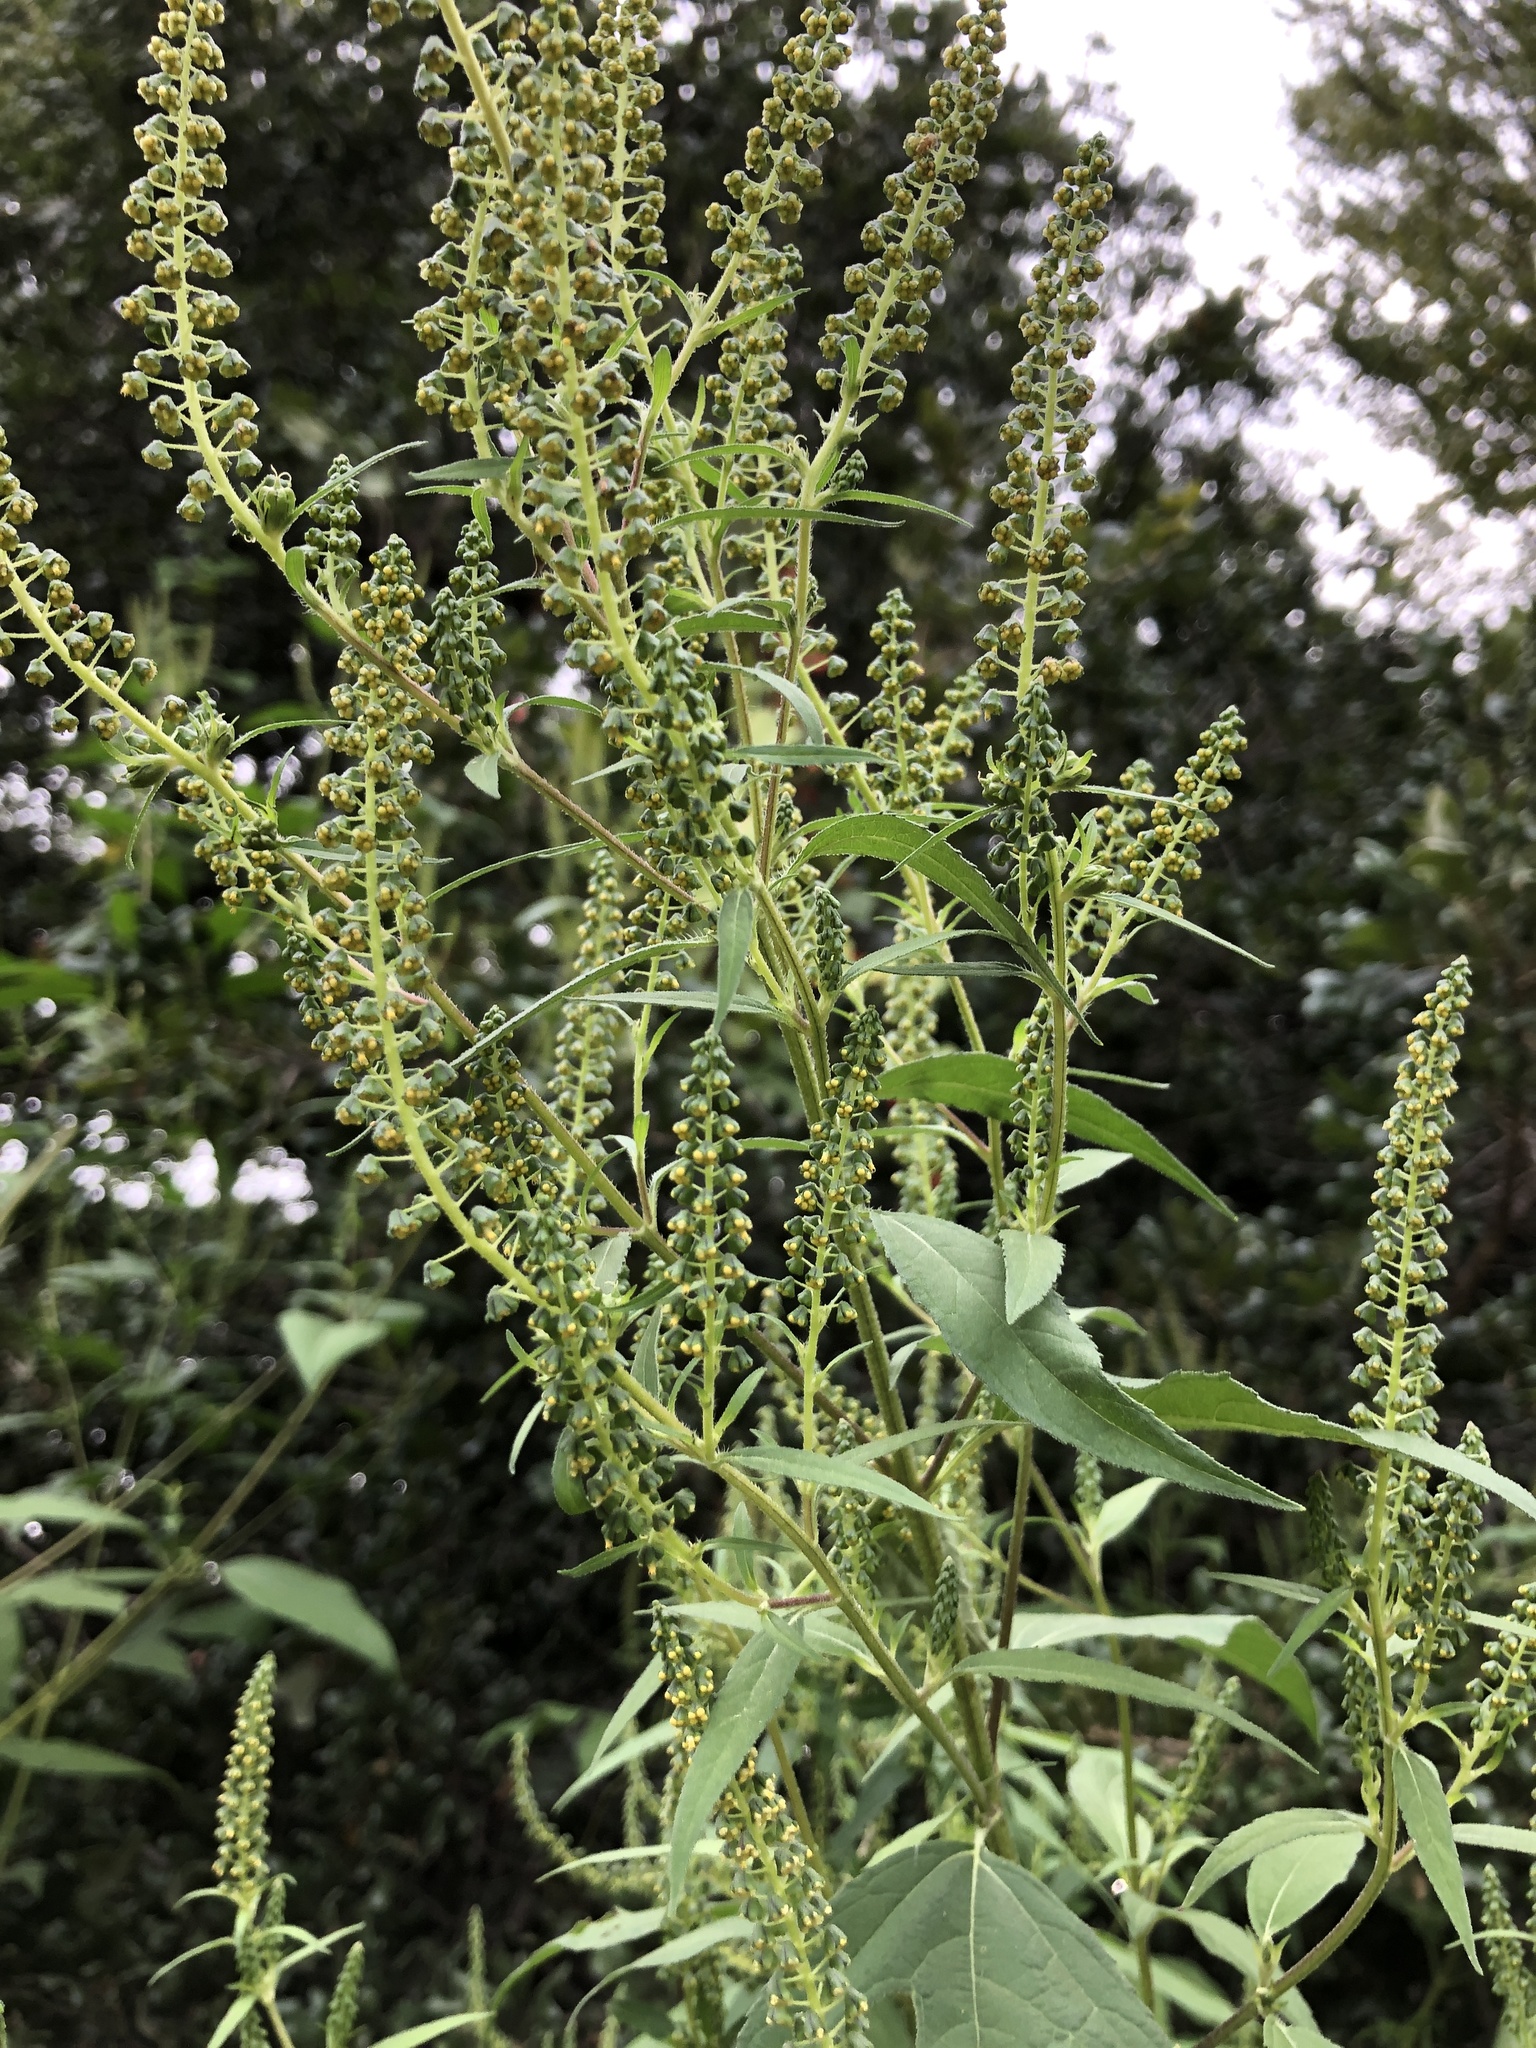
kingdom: Plantae
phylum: Tracheophyta
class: Magnoliopsida
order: Asterales
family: Asteraceae
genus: Ambrosia
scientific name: Ambrosia trifida
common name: Giant ragweed
